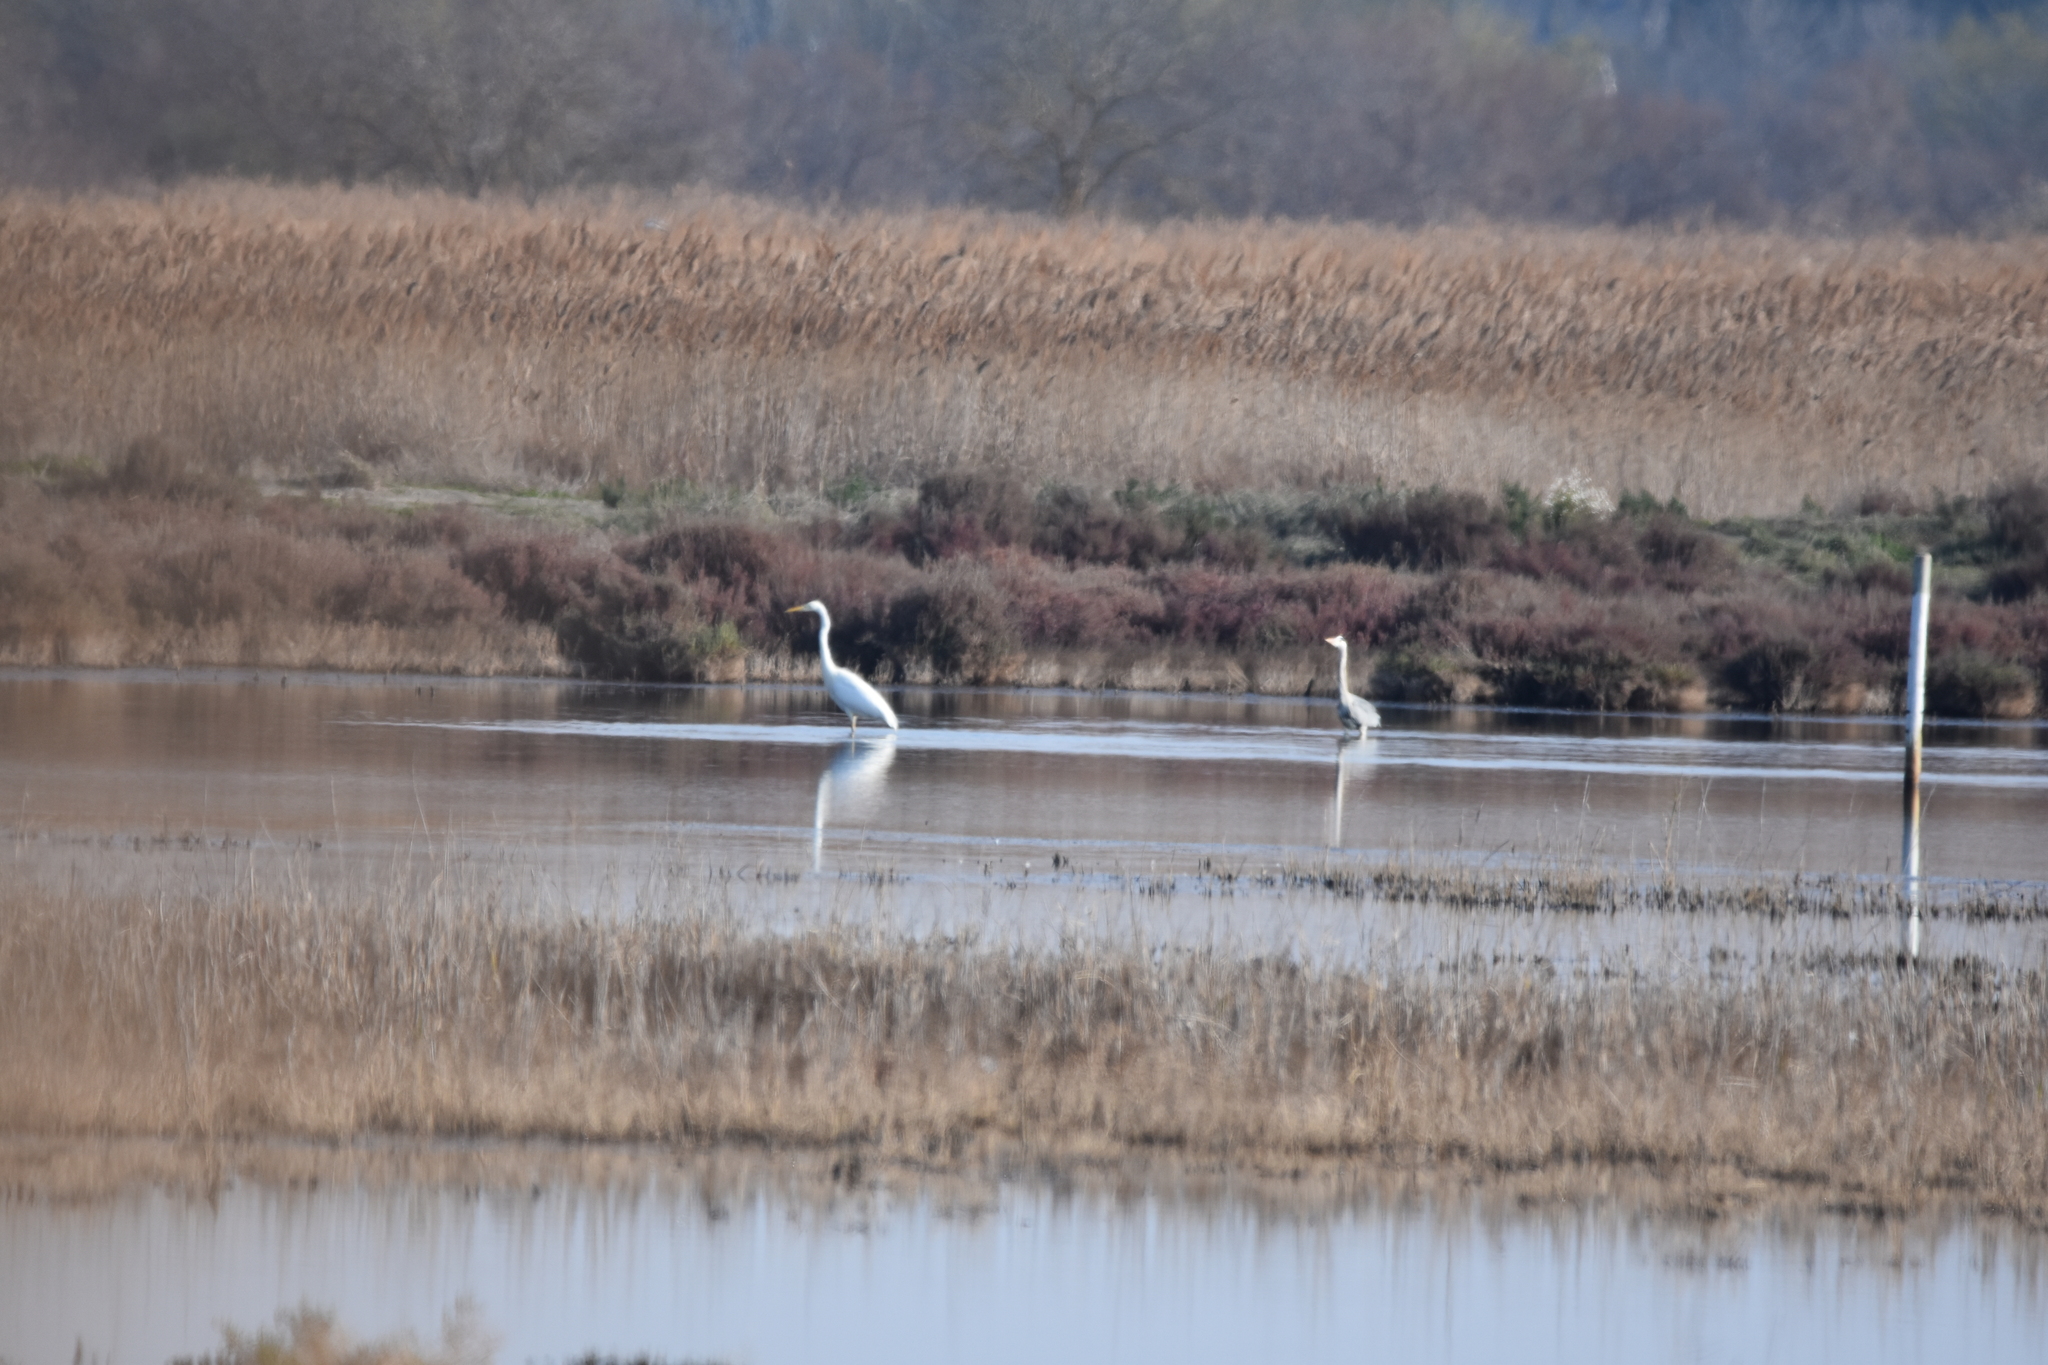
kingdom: Animalia
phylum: Chordata
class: Aves
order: Pelecaniformes
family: Ardeidae
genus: Ardea
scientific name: Ardea alba
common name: Great egret
